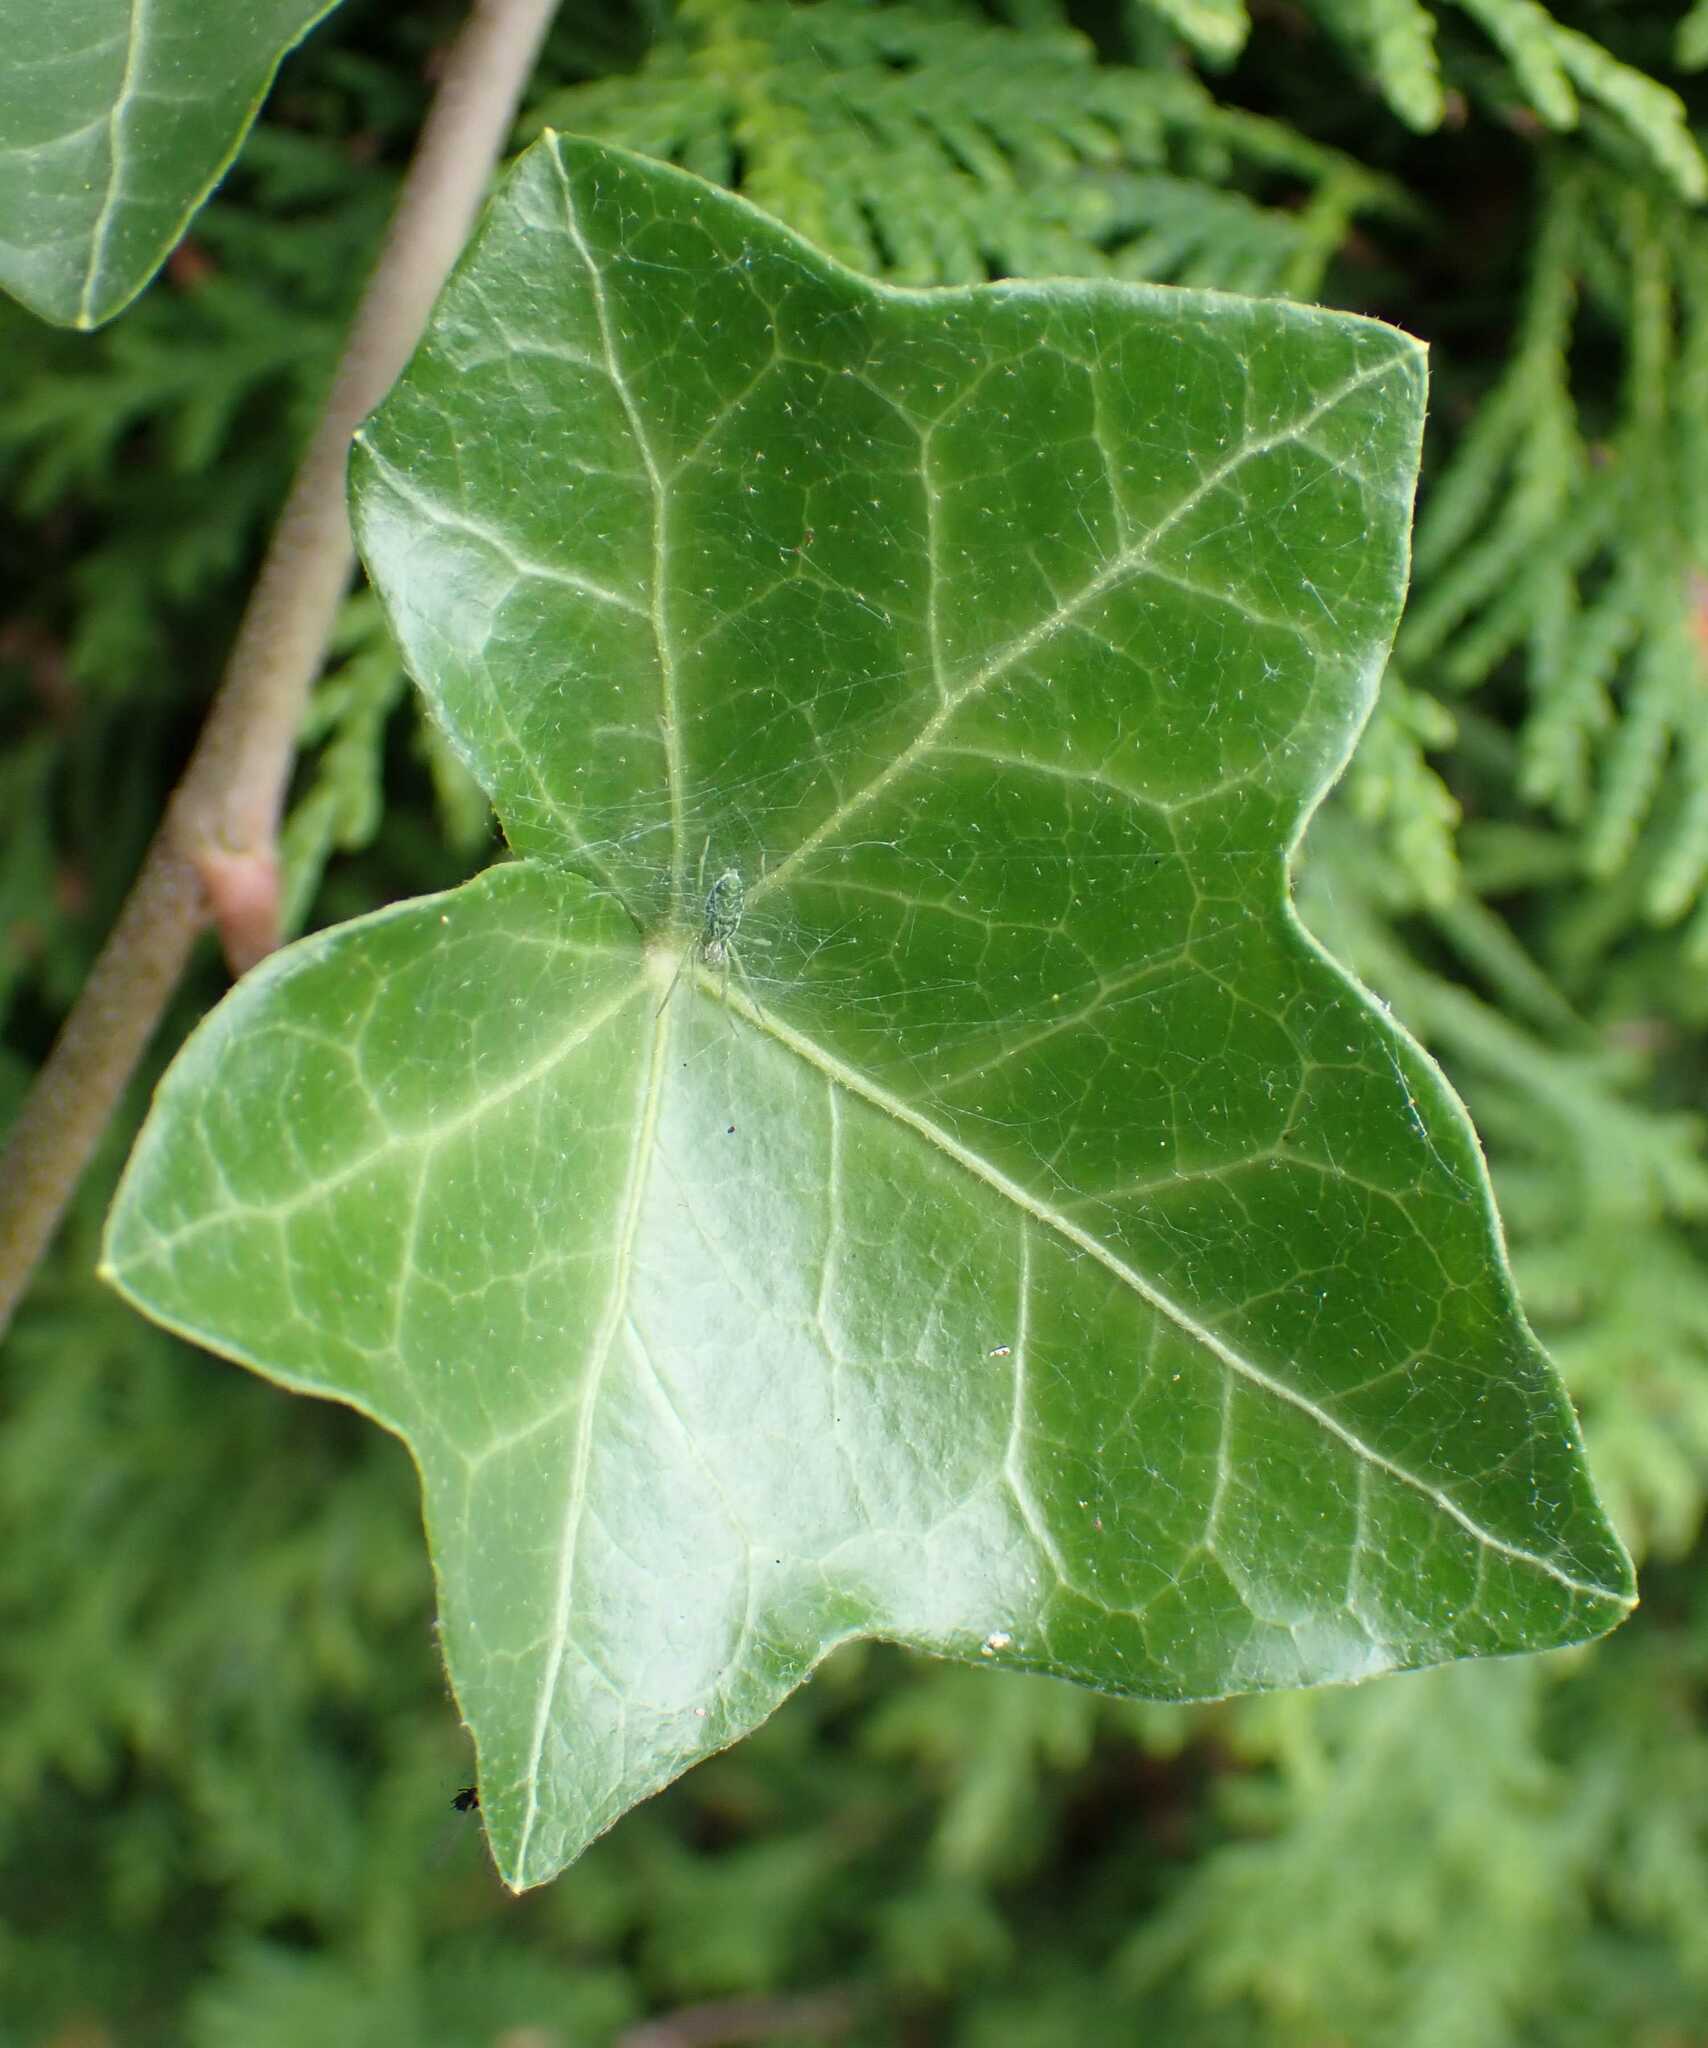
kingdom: Animalia
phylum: Arthropoda
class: Arachnida
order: Araneae
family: Dictynidae
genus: Nigma
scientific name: Nigma walckenaeri
